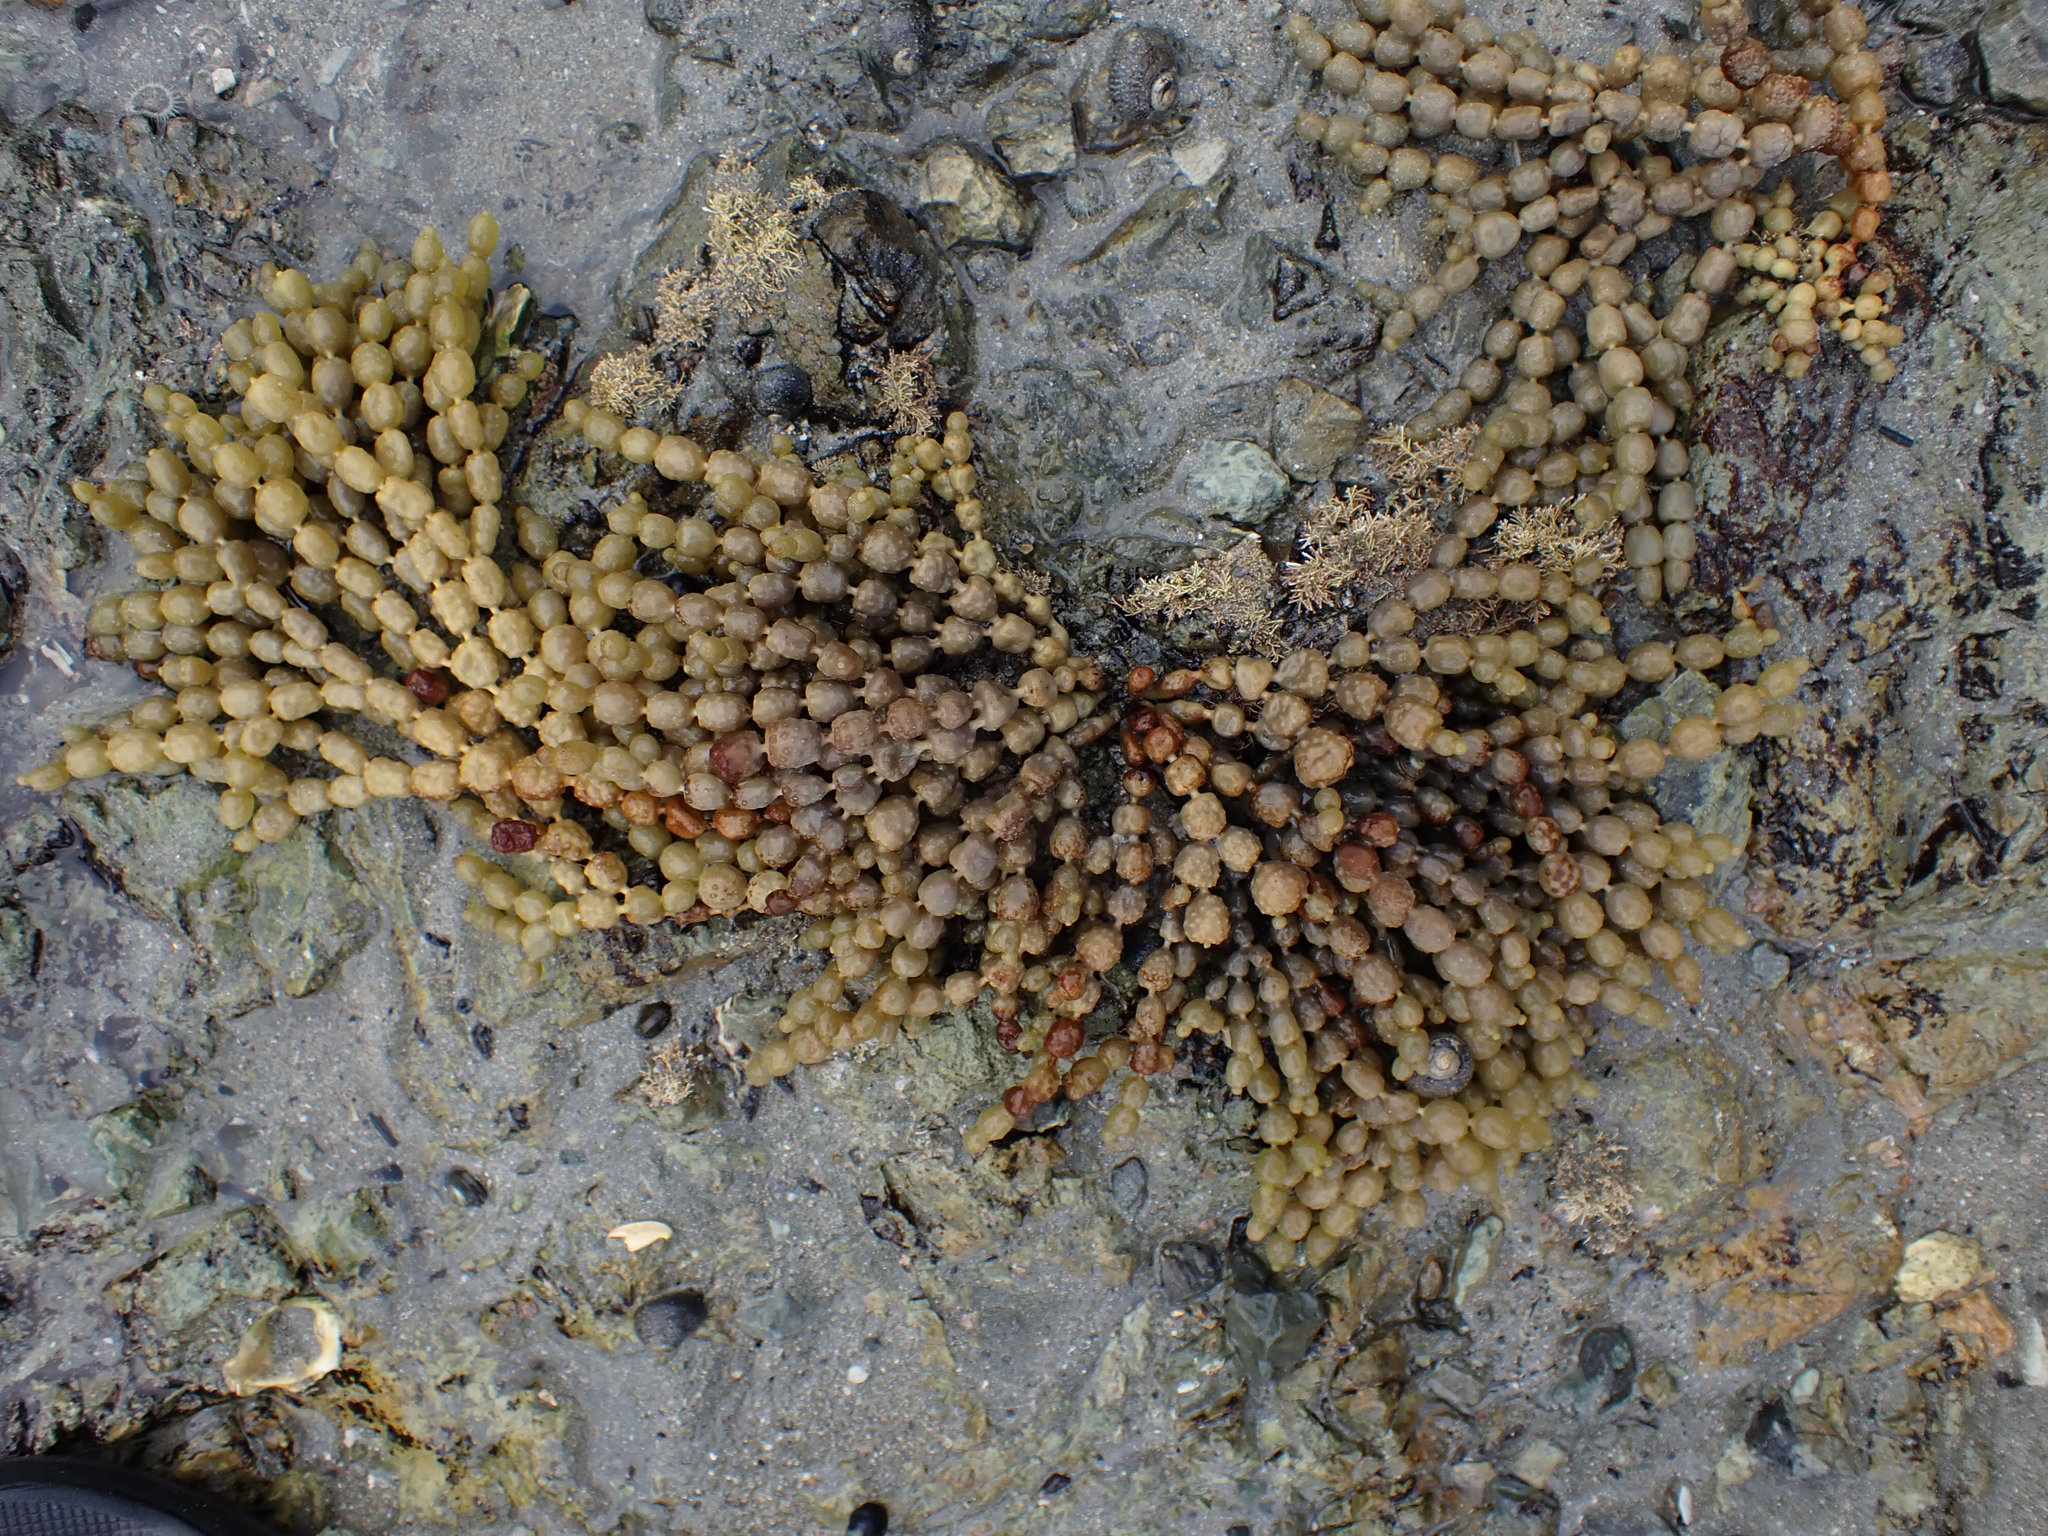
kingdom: Chromista
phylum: Ochrophyta
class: Phaeophyceae
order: Fucales
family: Hormosiraceae
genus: Hormosira
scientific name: Hormosira banksii
